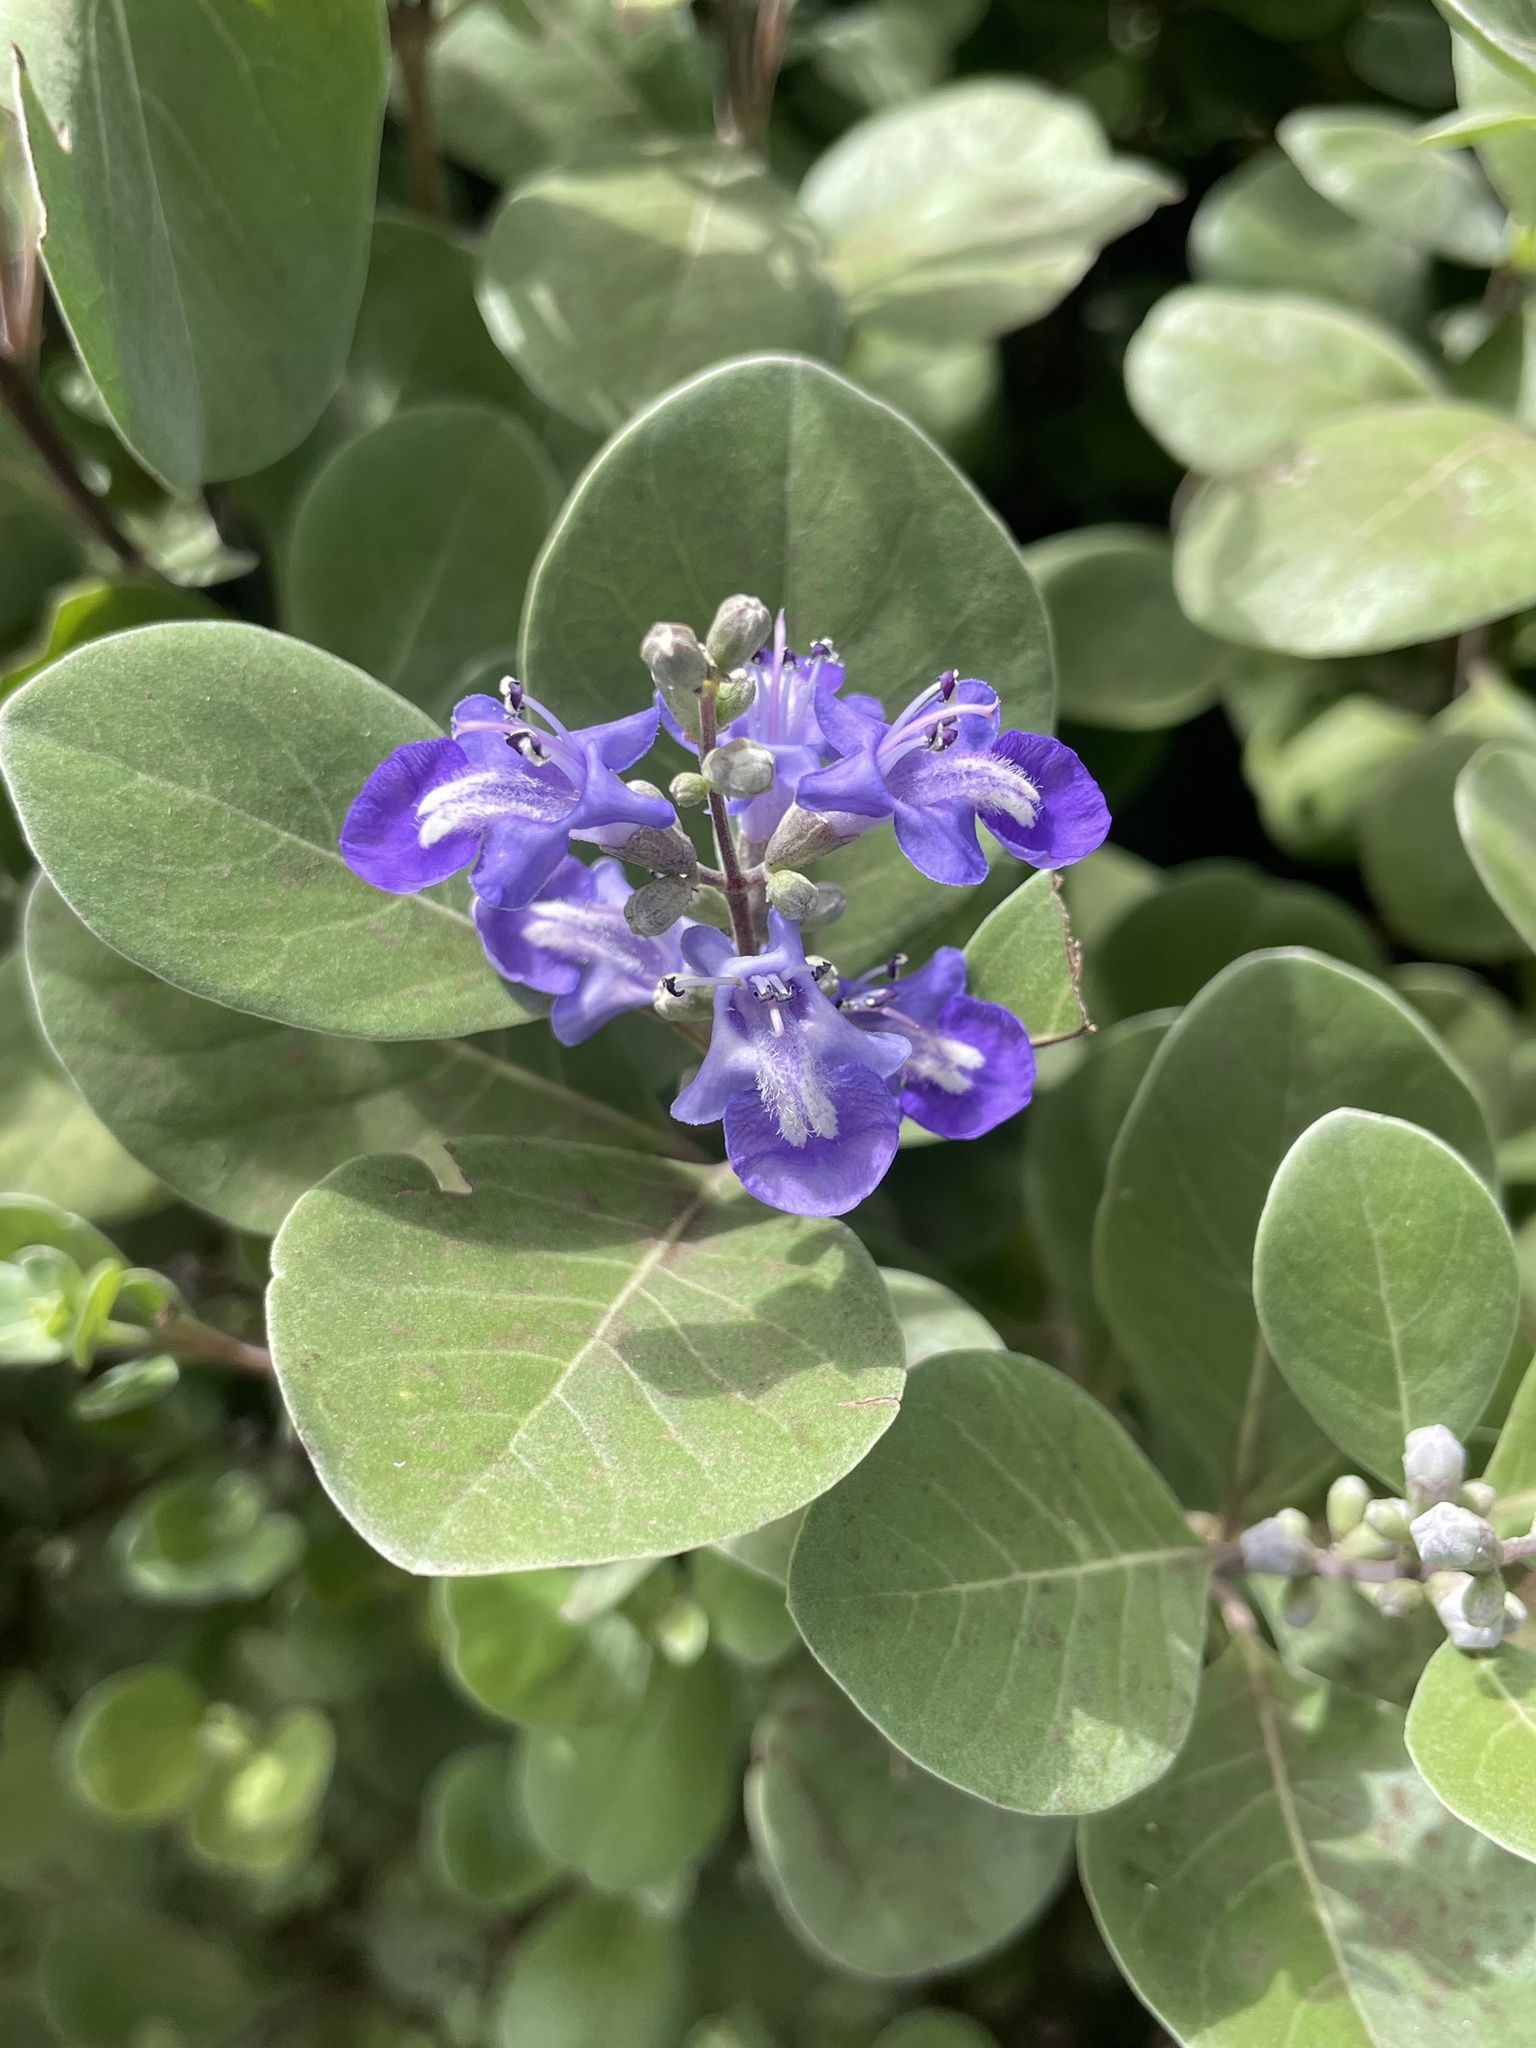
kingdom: Plantae
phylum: Tracheophyta
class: Magnoliopsida
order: Lamiales
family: Lamiaceae
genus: Vitex
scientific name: Vitex rotundifolia
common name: Beach vitex
